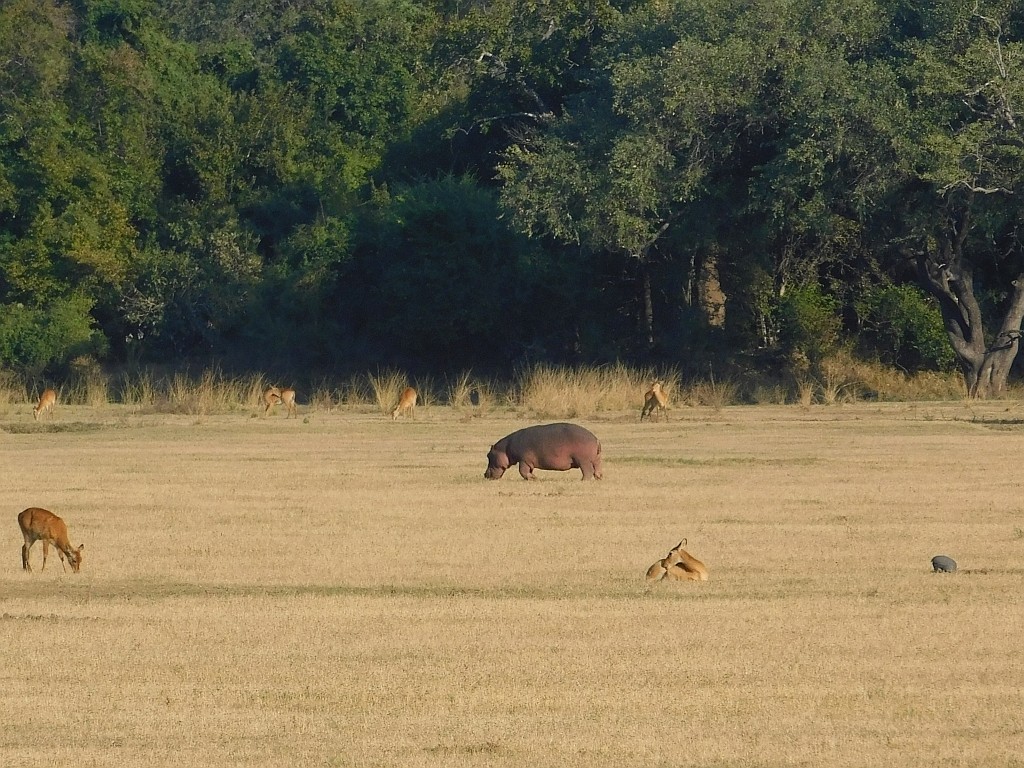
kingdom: Animalia
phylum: Chordata
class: Mammalia
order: Artiodactyla
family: Hippopotamidae
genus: Hippopotamus
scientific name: Hippopotamus amphibius
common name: Common hippopotamus
